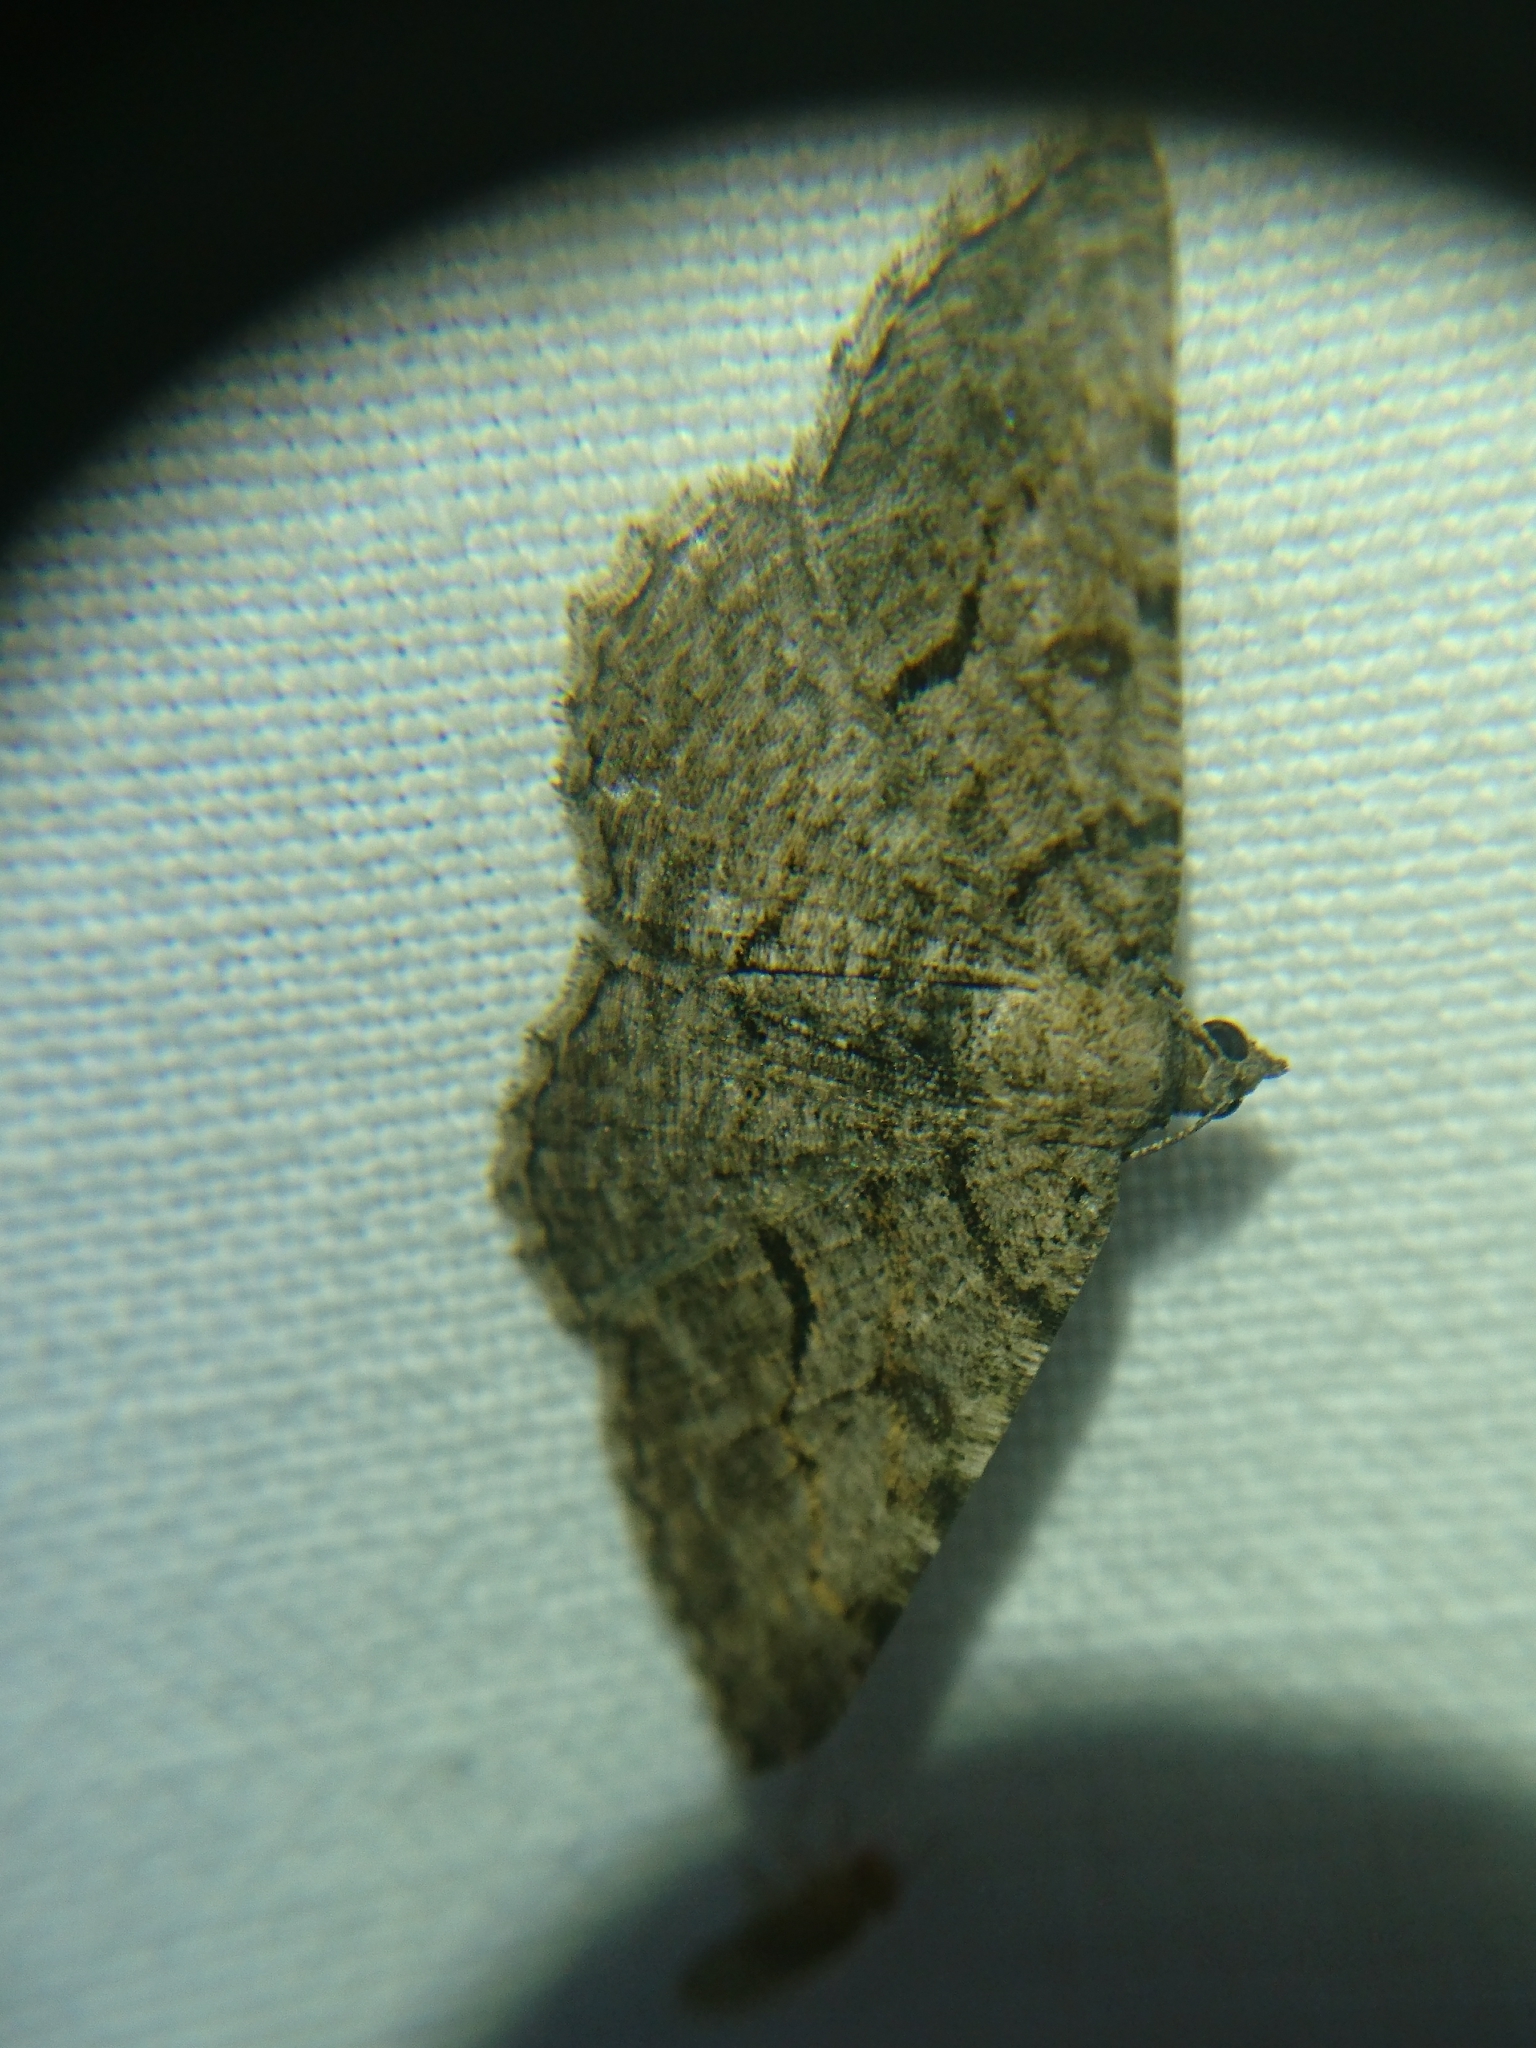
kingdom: Animalia
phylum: Arthropoda
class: Insecta
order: Lepidoptera
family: Geometridae
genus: Digrammia
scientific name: Digrammia gnophosaria
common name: Hollow-spotted angle
